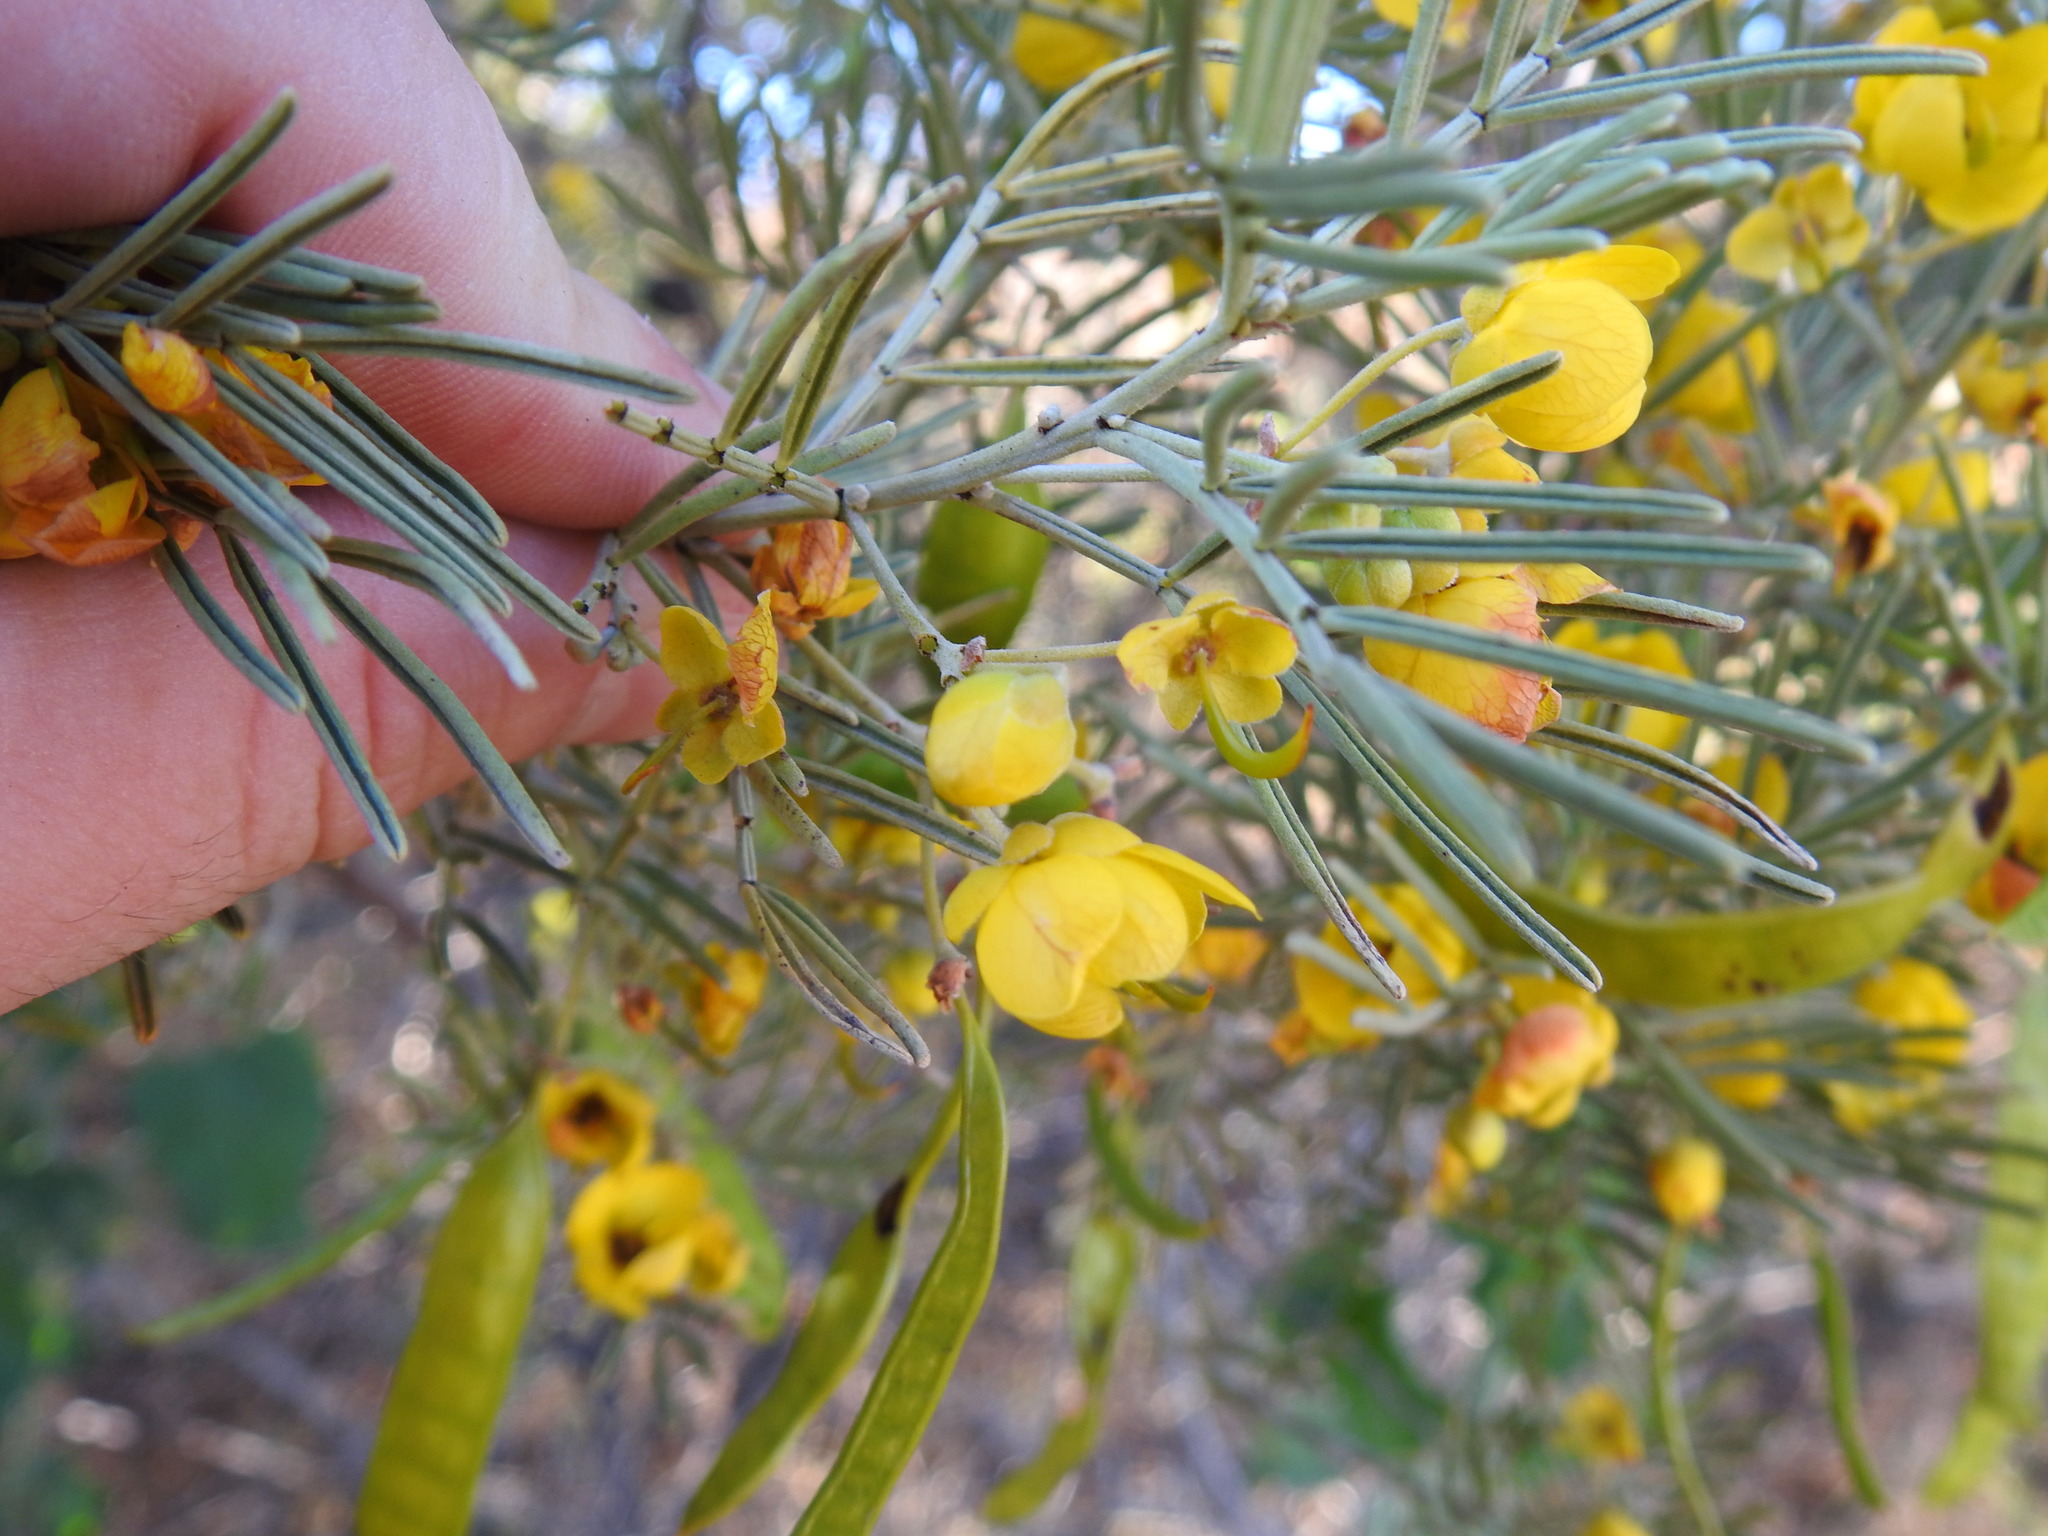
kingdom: Plantae
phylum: Tracheophyta
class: Magnoliopsida
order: Fabales
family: Fabaceae
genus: Senna
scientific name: Senna artemisioides
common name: Burnt-leaved acacia
